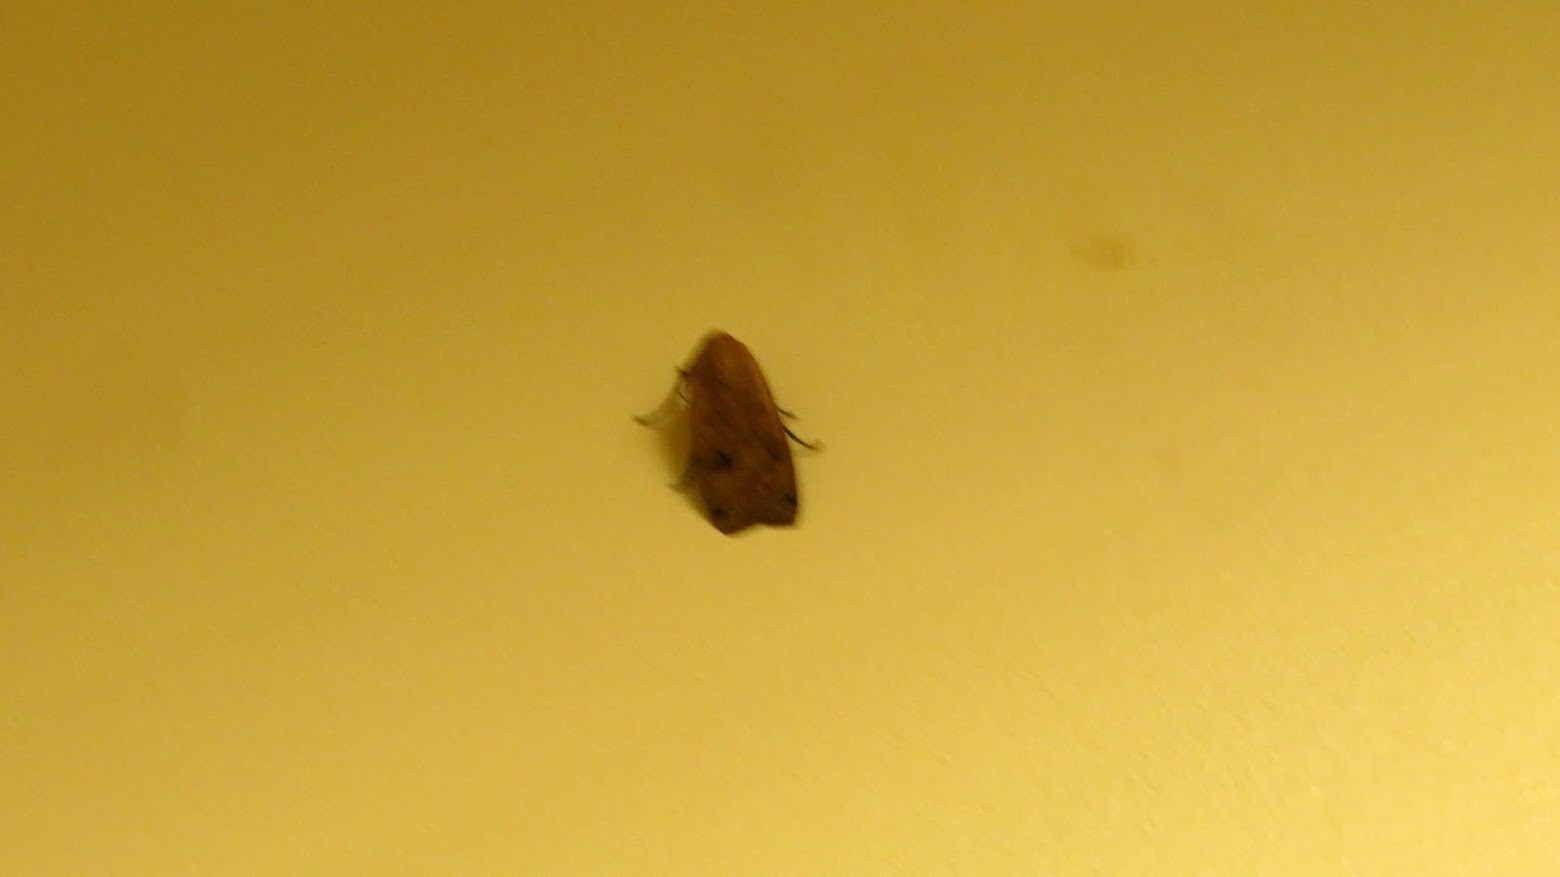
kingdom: Animalia
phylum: Arthropoda
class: Insecta
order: Lepidoptera
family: Noctuidae
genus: Noctua
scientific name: Noctua pronuba
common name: Large yellow underwing
